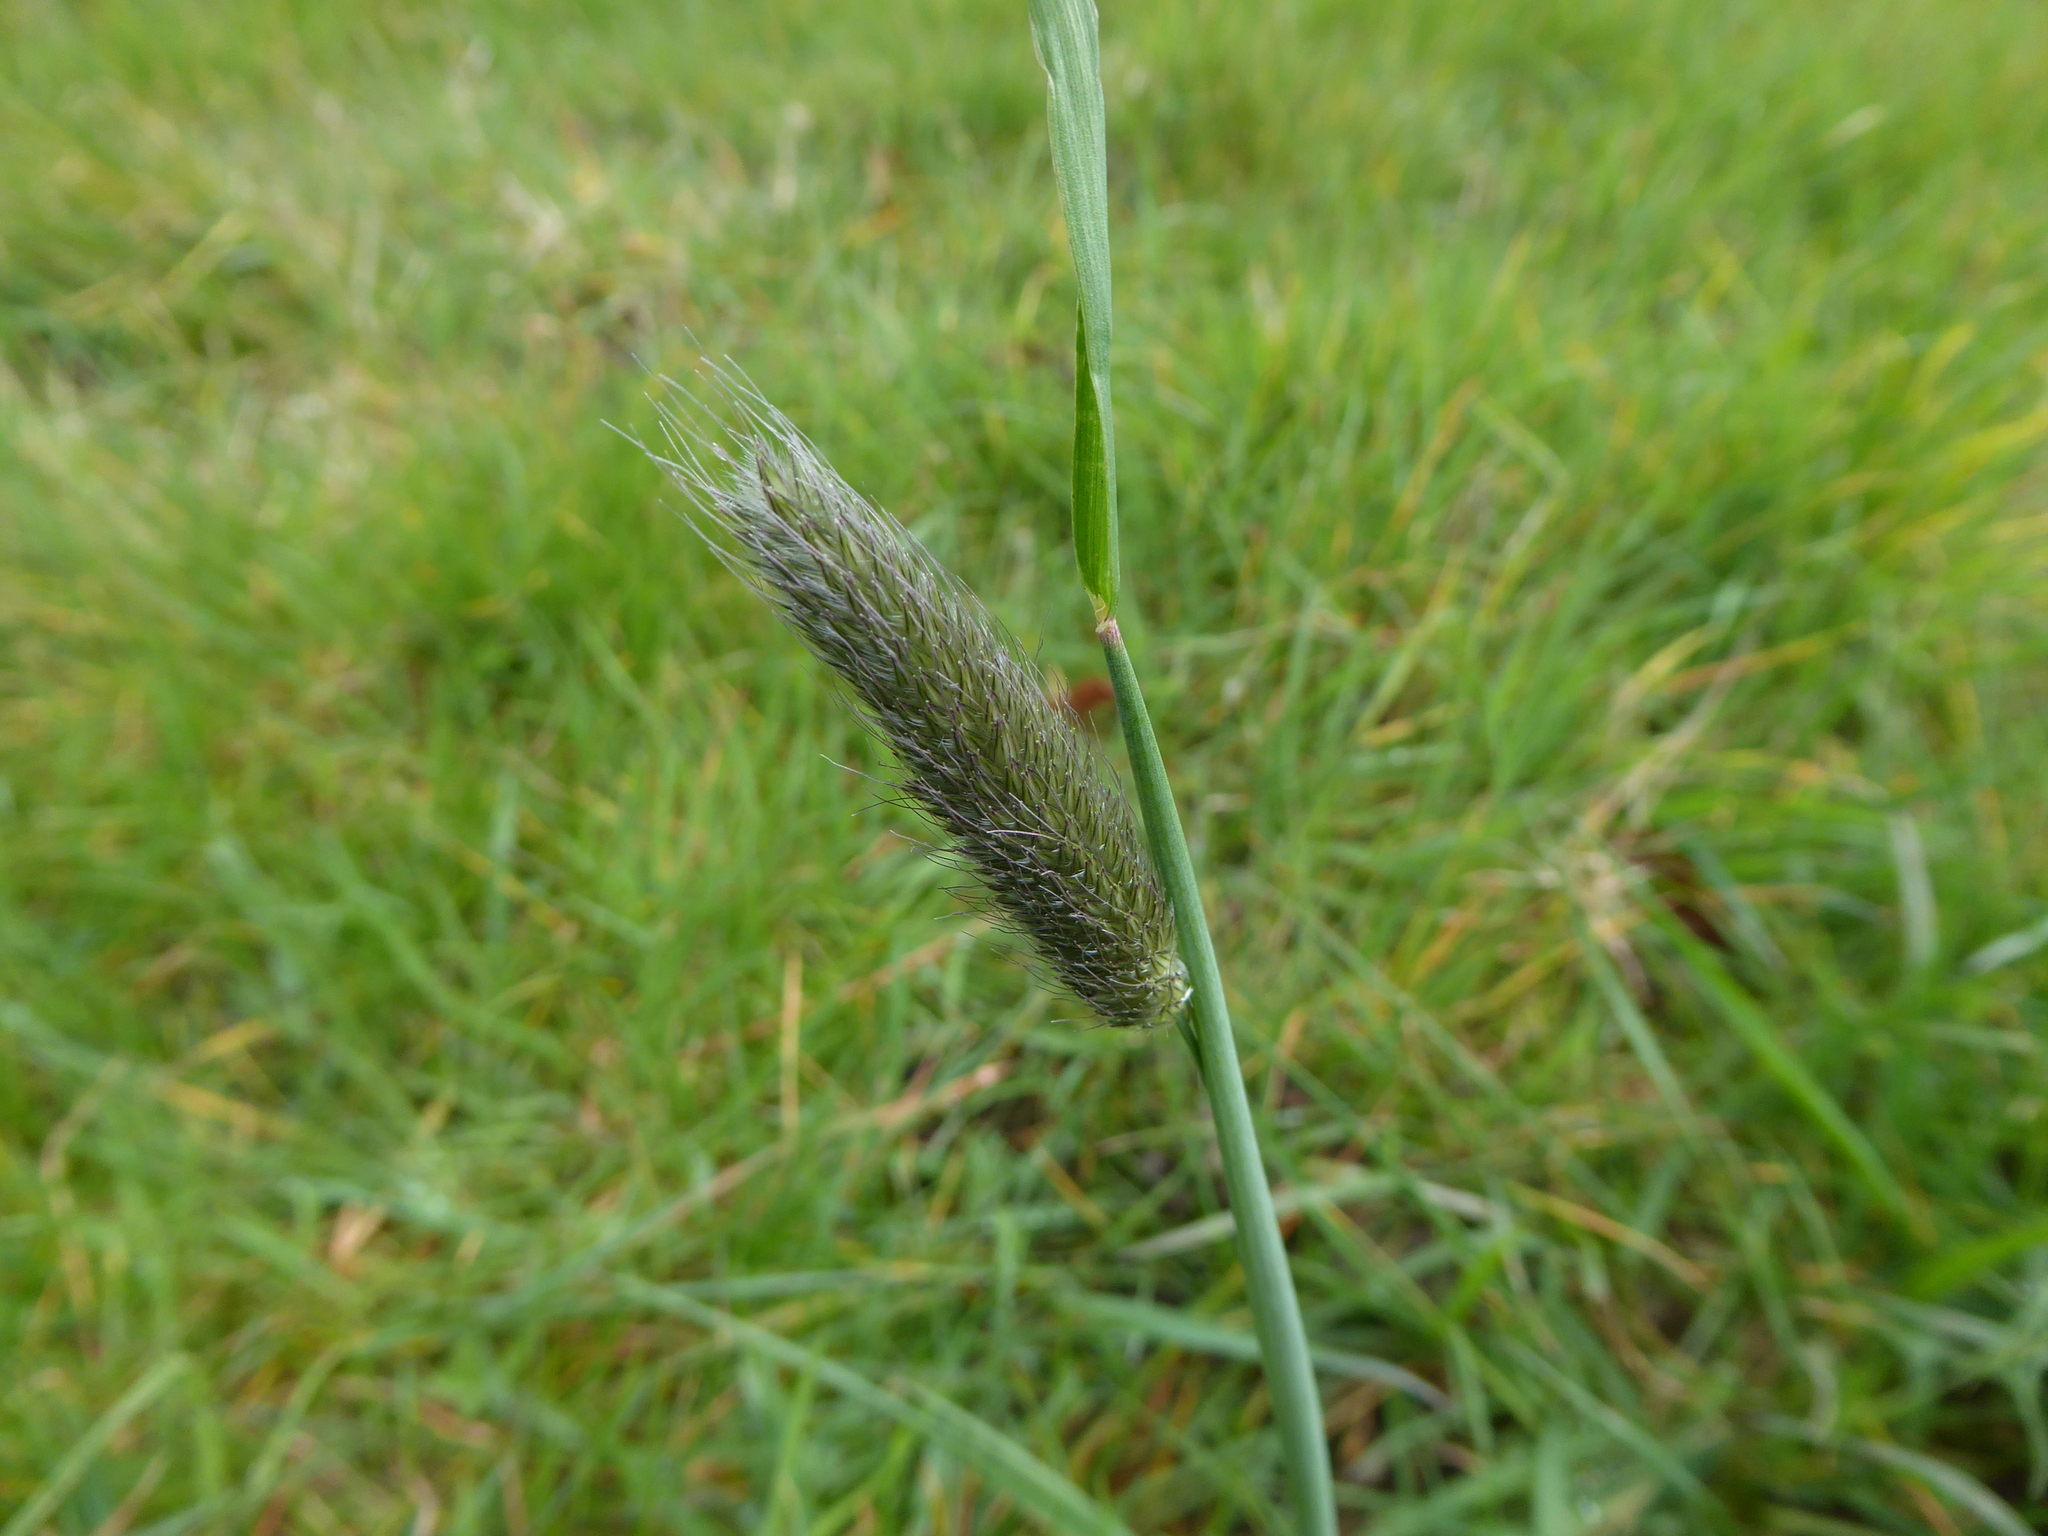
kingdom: Plantae
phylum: Tracheophyta
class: Liliopsida
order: Poales
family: Poaceae
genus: Alopecurus
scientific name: Alopecurus pratensis
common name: Meadow foxtail
